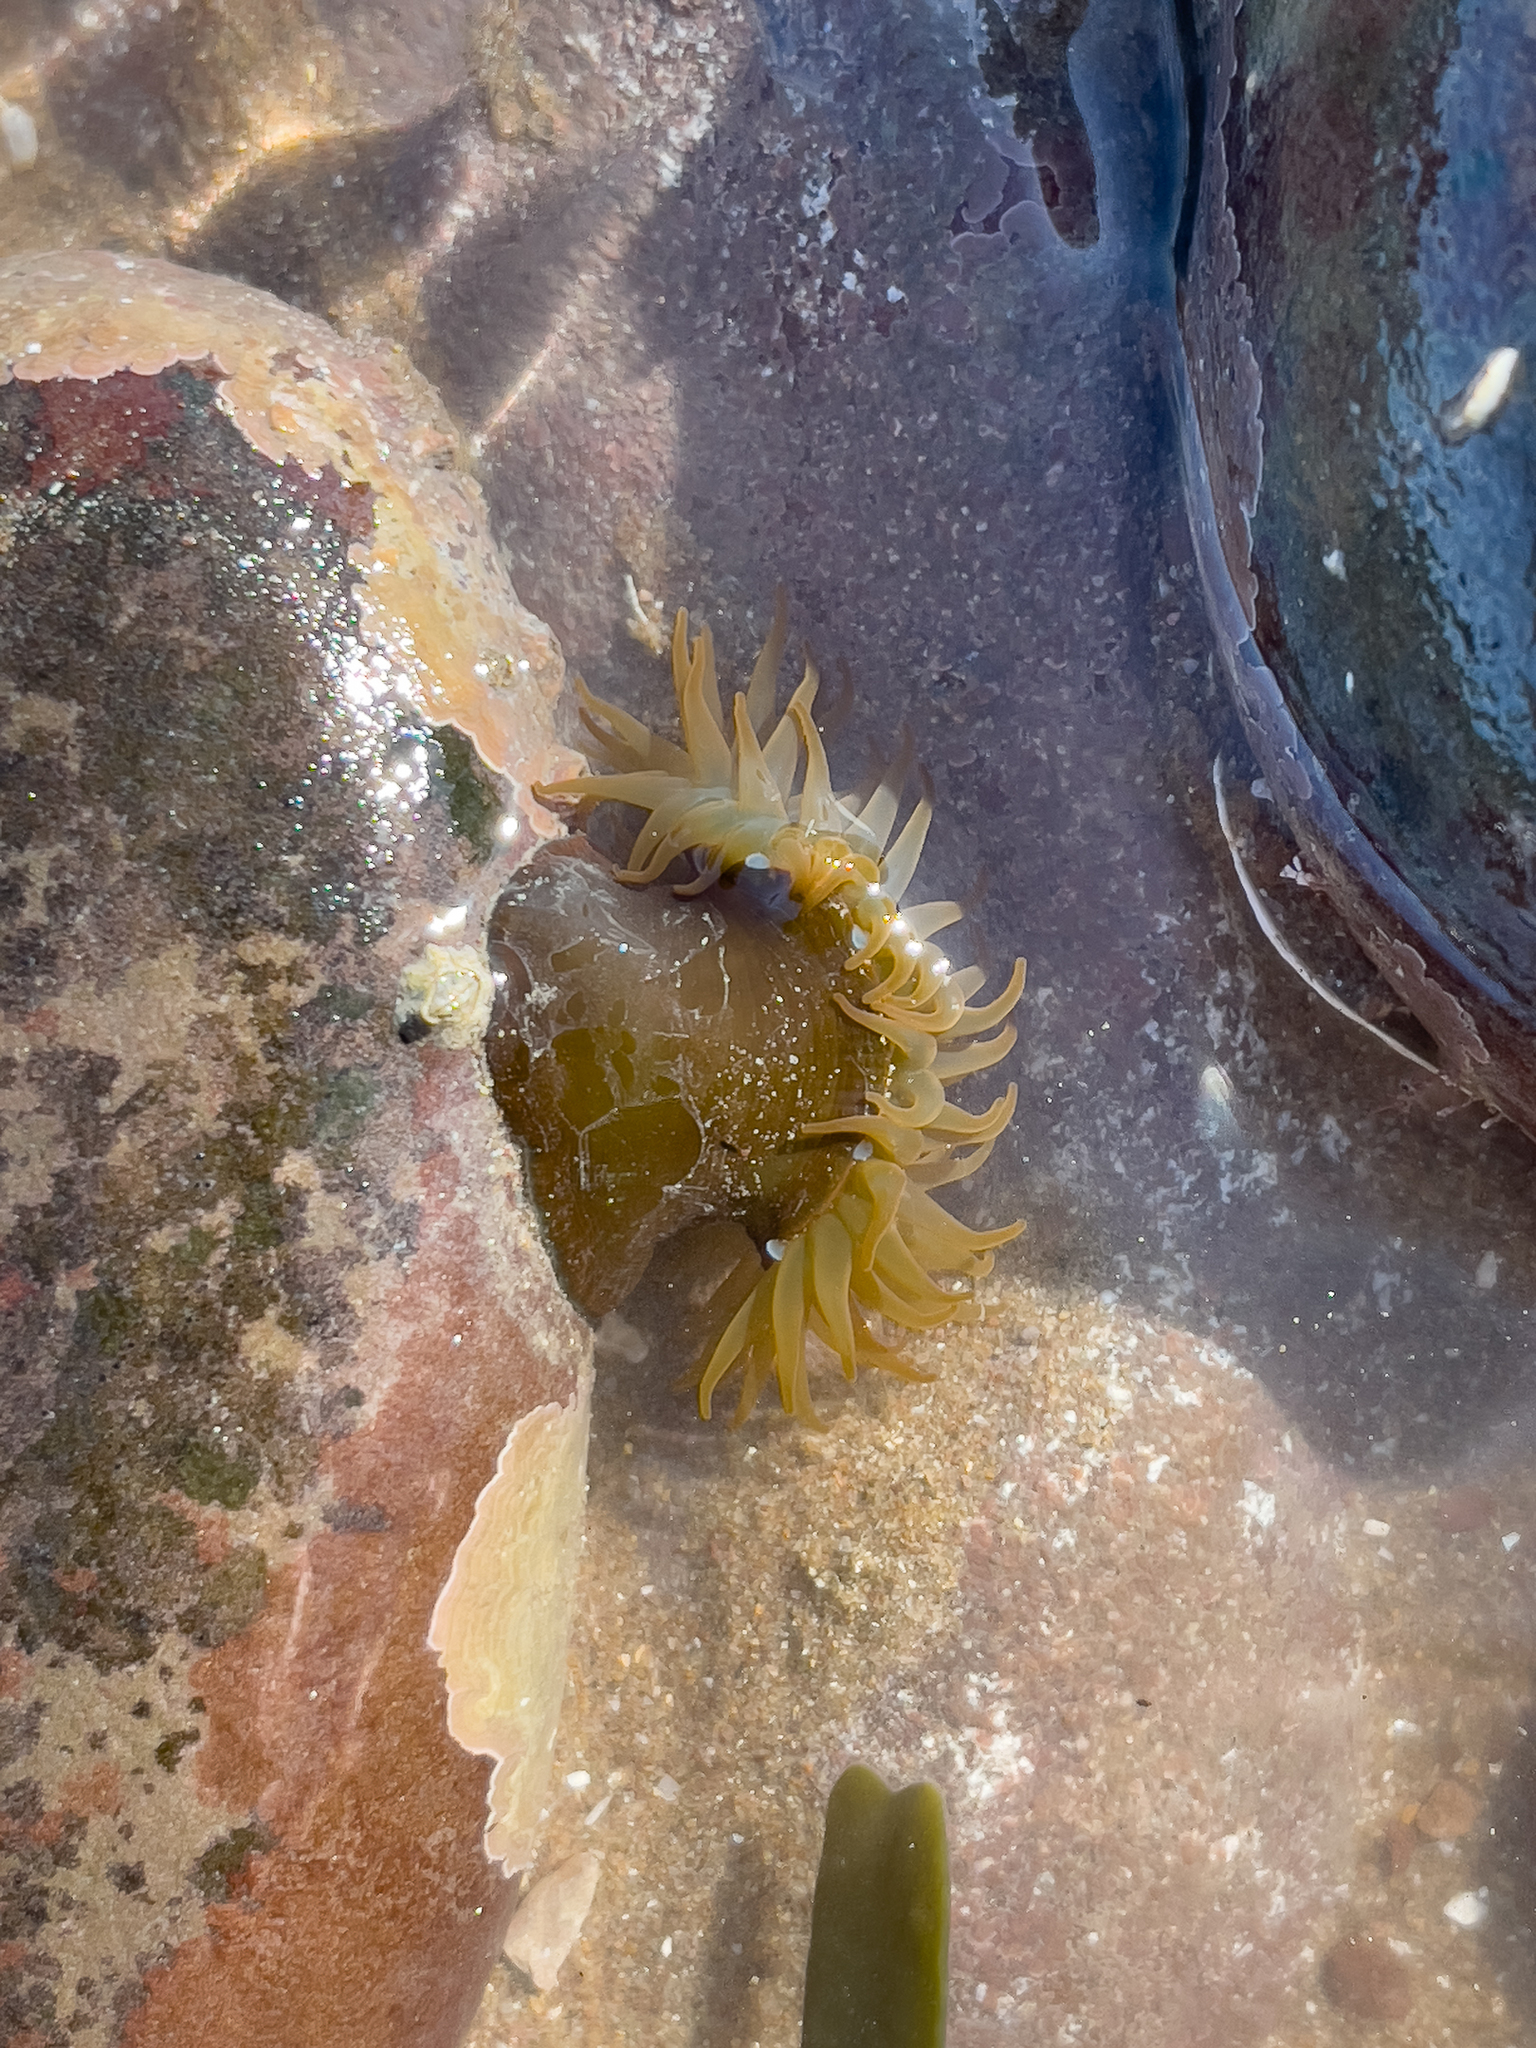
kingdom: Animalia
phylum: Cnidaria
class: Anthozoa
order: Actiniaria
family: Actiniidae
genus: Actinia
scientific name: Actinia equina
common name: Beadlet anemone
